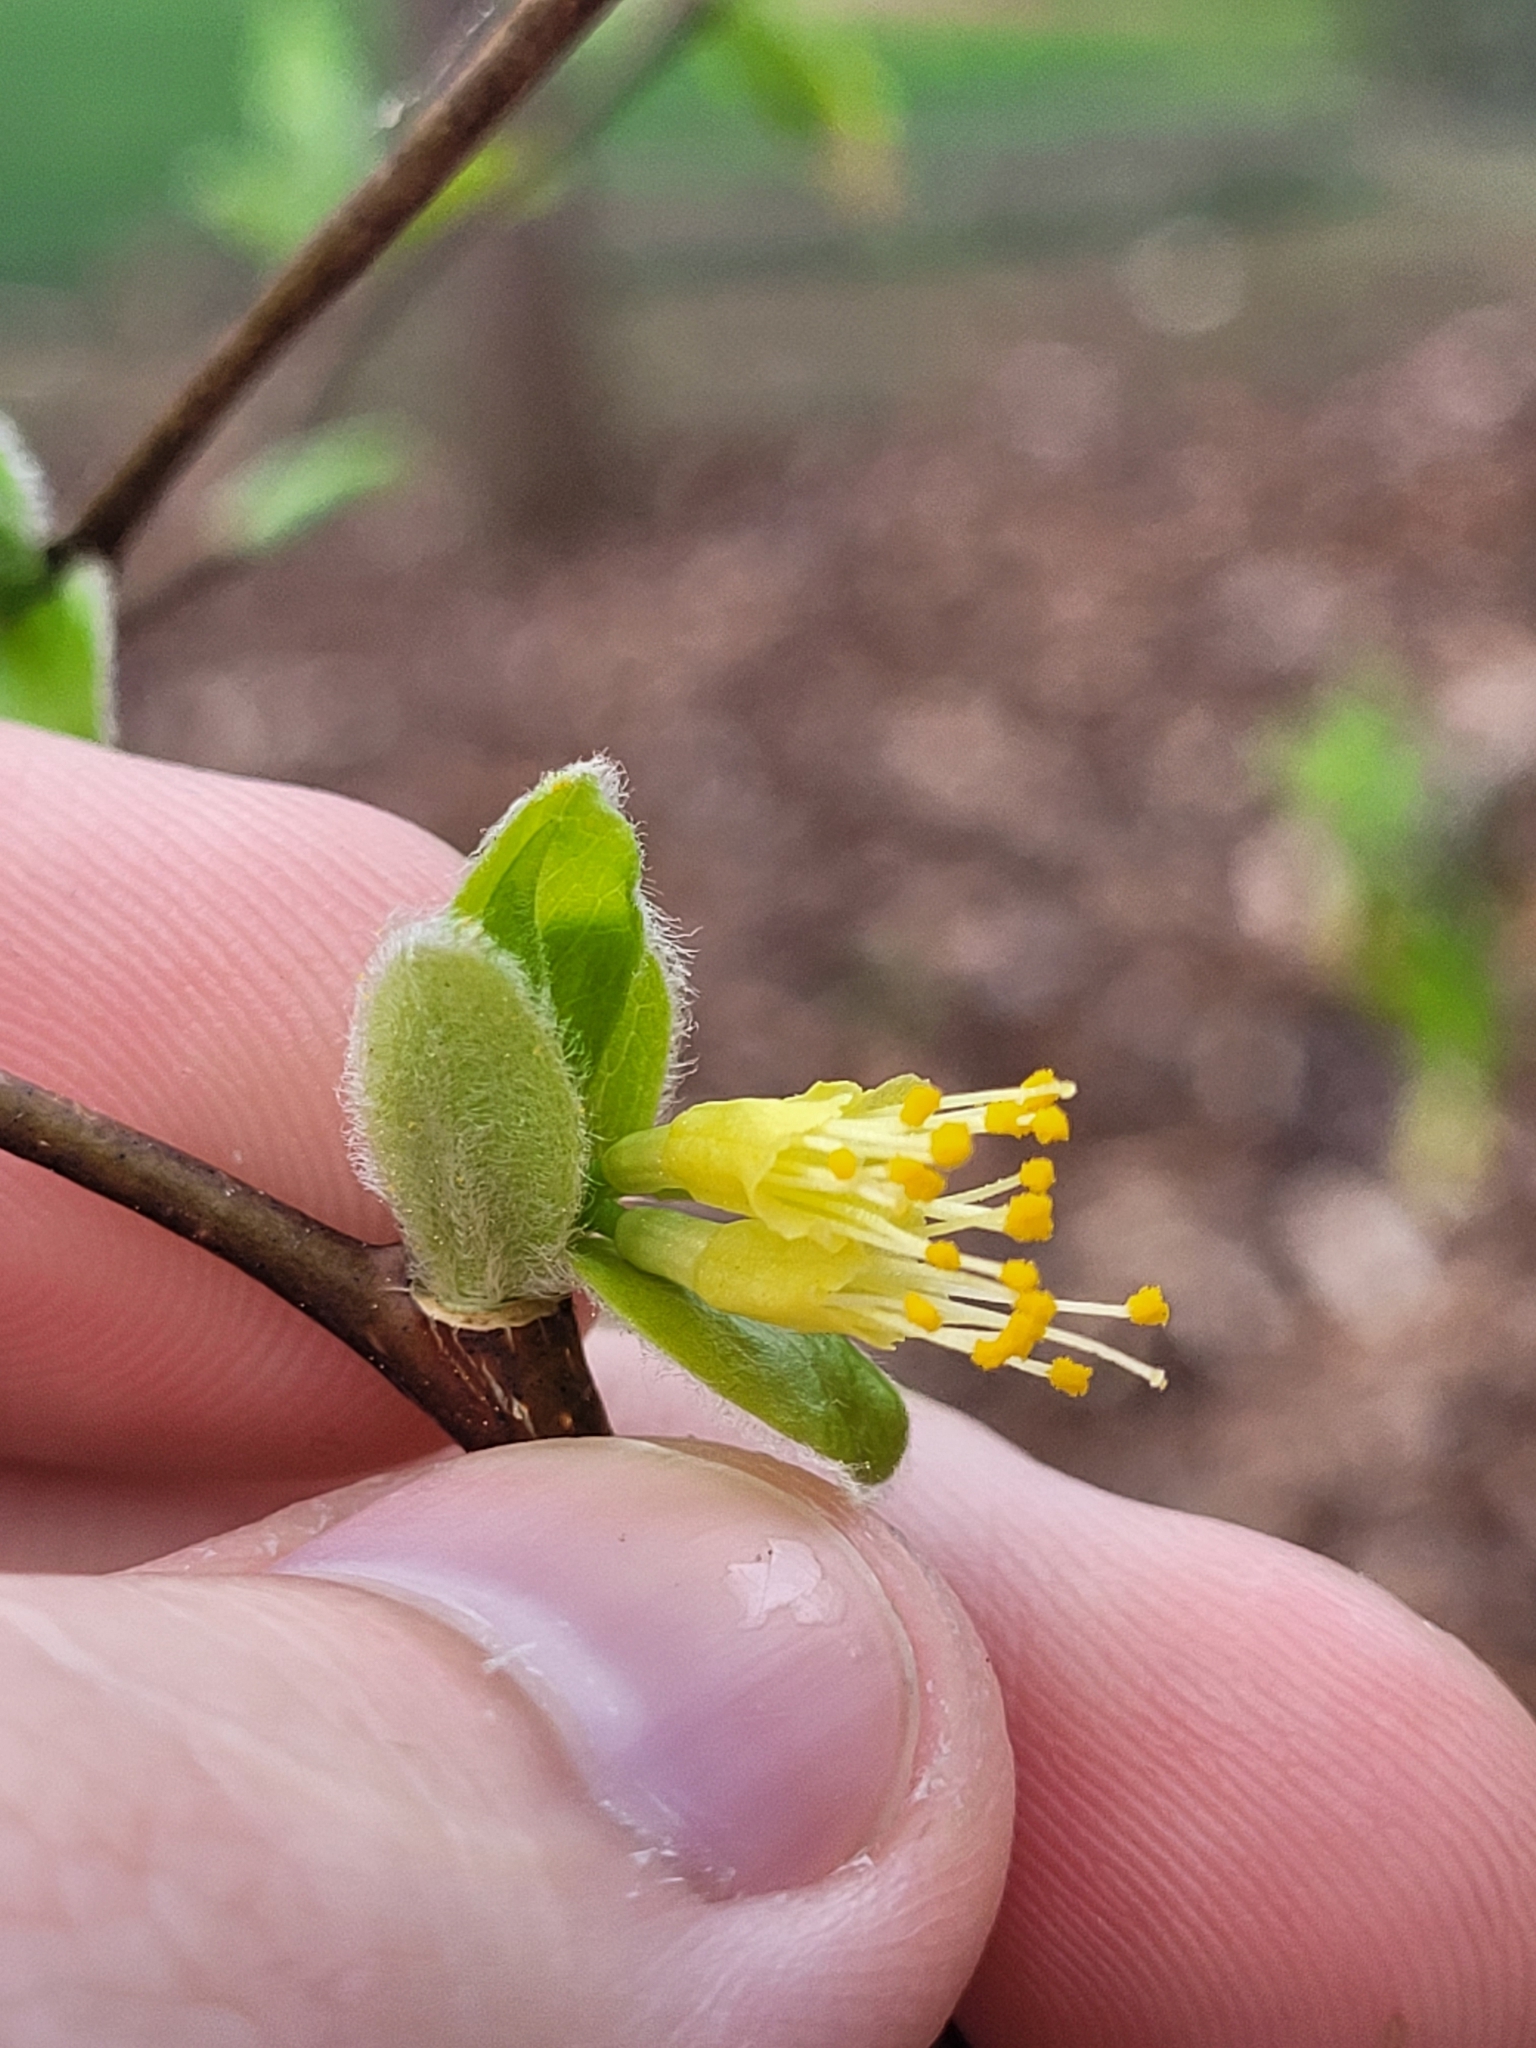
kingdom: Plantae
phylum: Tracheophyta
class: Magnoliopsida
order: Malvales
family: Thymelaeaceae
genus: Dirca
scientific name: Dirca palustris
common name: Leatherwood
